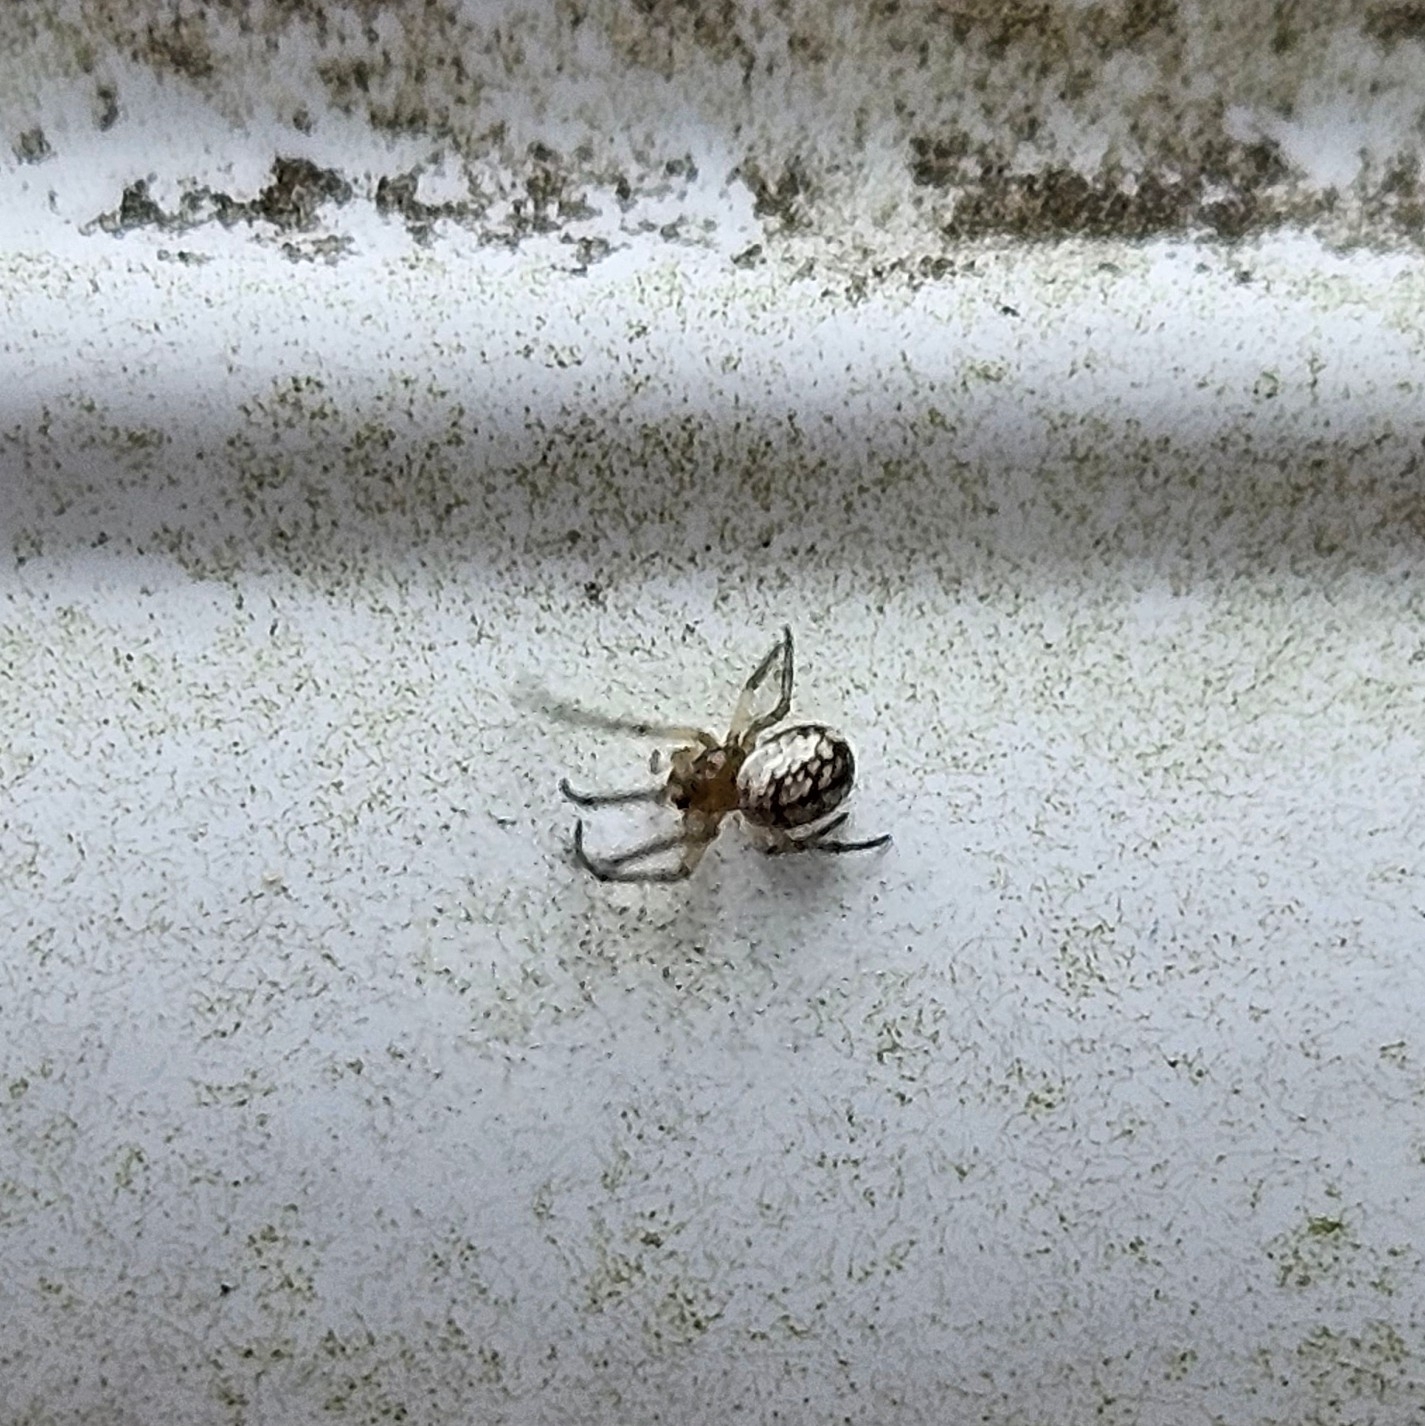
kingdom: Animalia
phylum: Arthropoda
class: Arachnida
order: Araneae
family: Tetragnathidae
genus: Leucauge
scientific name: Leucauge venusta
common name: Longjawed orb weavers
